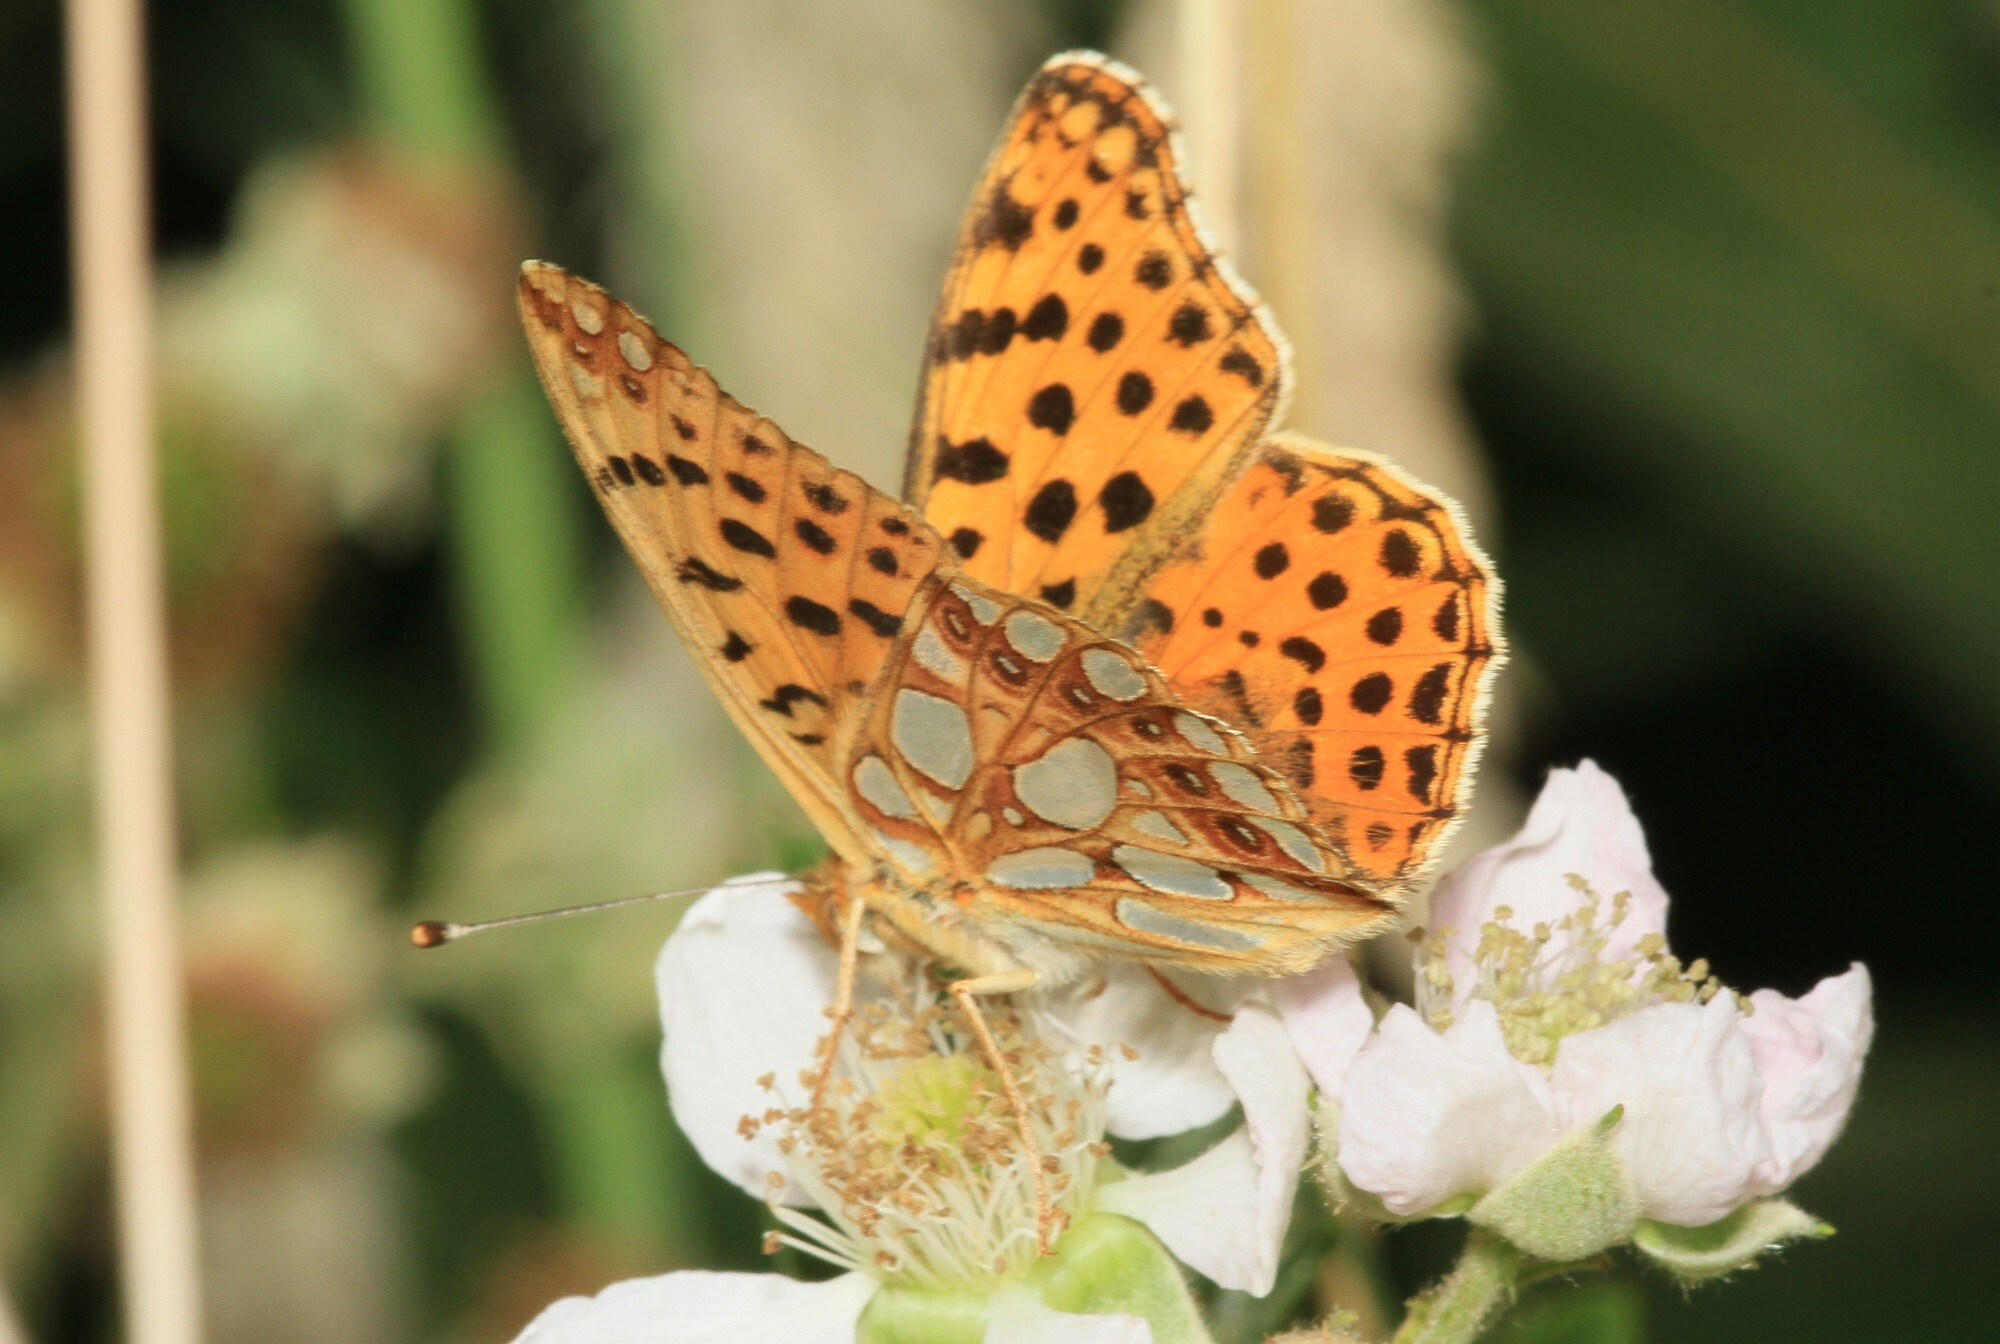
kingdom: Animalia
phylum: Arthropoda
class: Insecta
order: Lepidoptera
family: Nymphalidae
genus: Issoria
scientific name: Issoria lathonia
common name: Queen of spain fritillary
